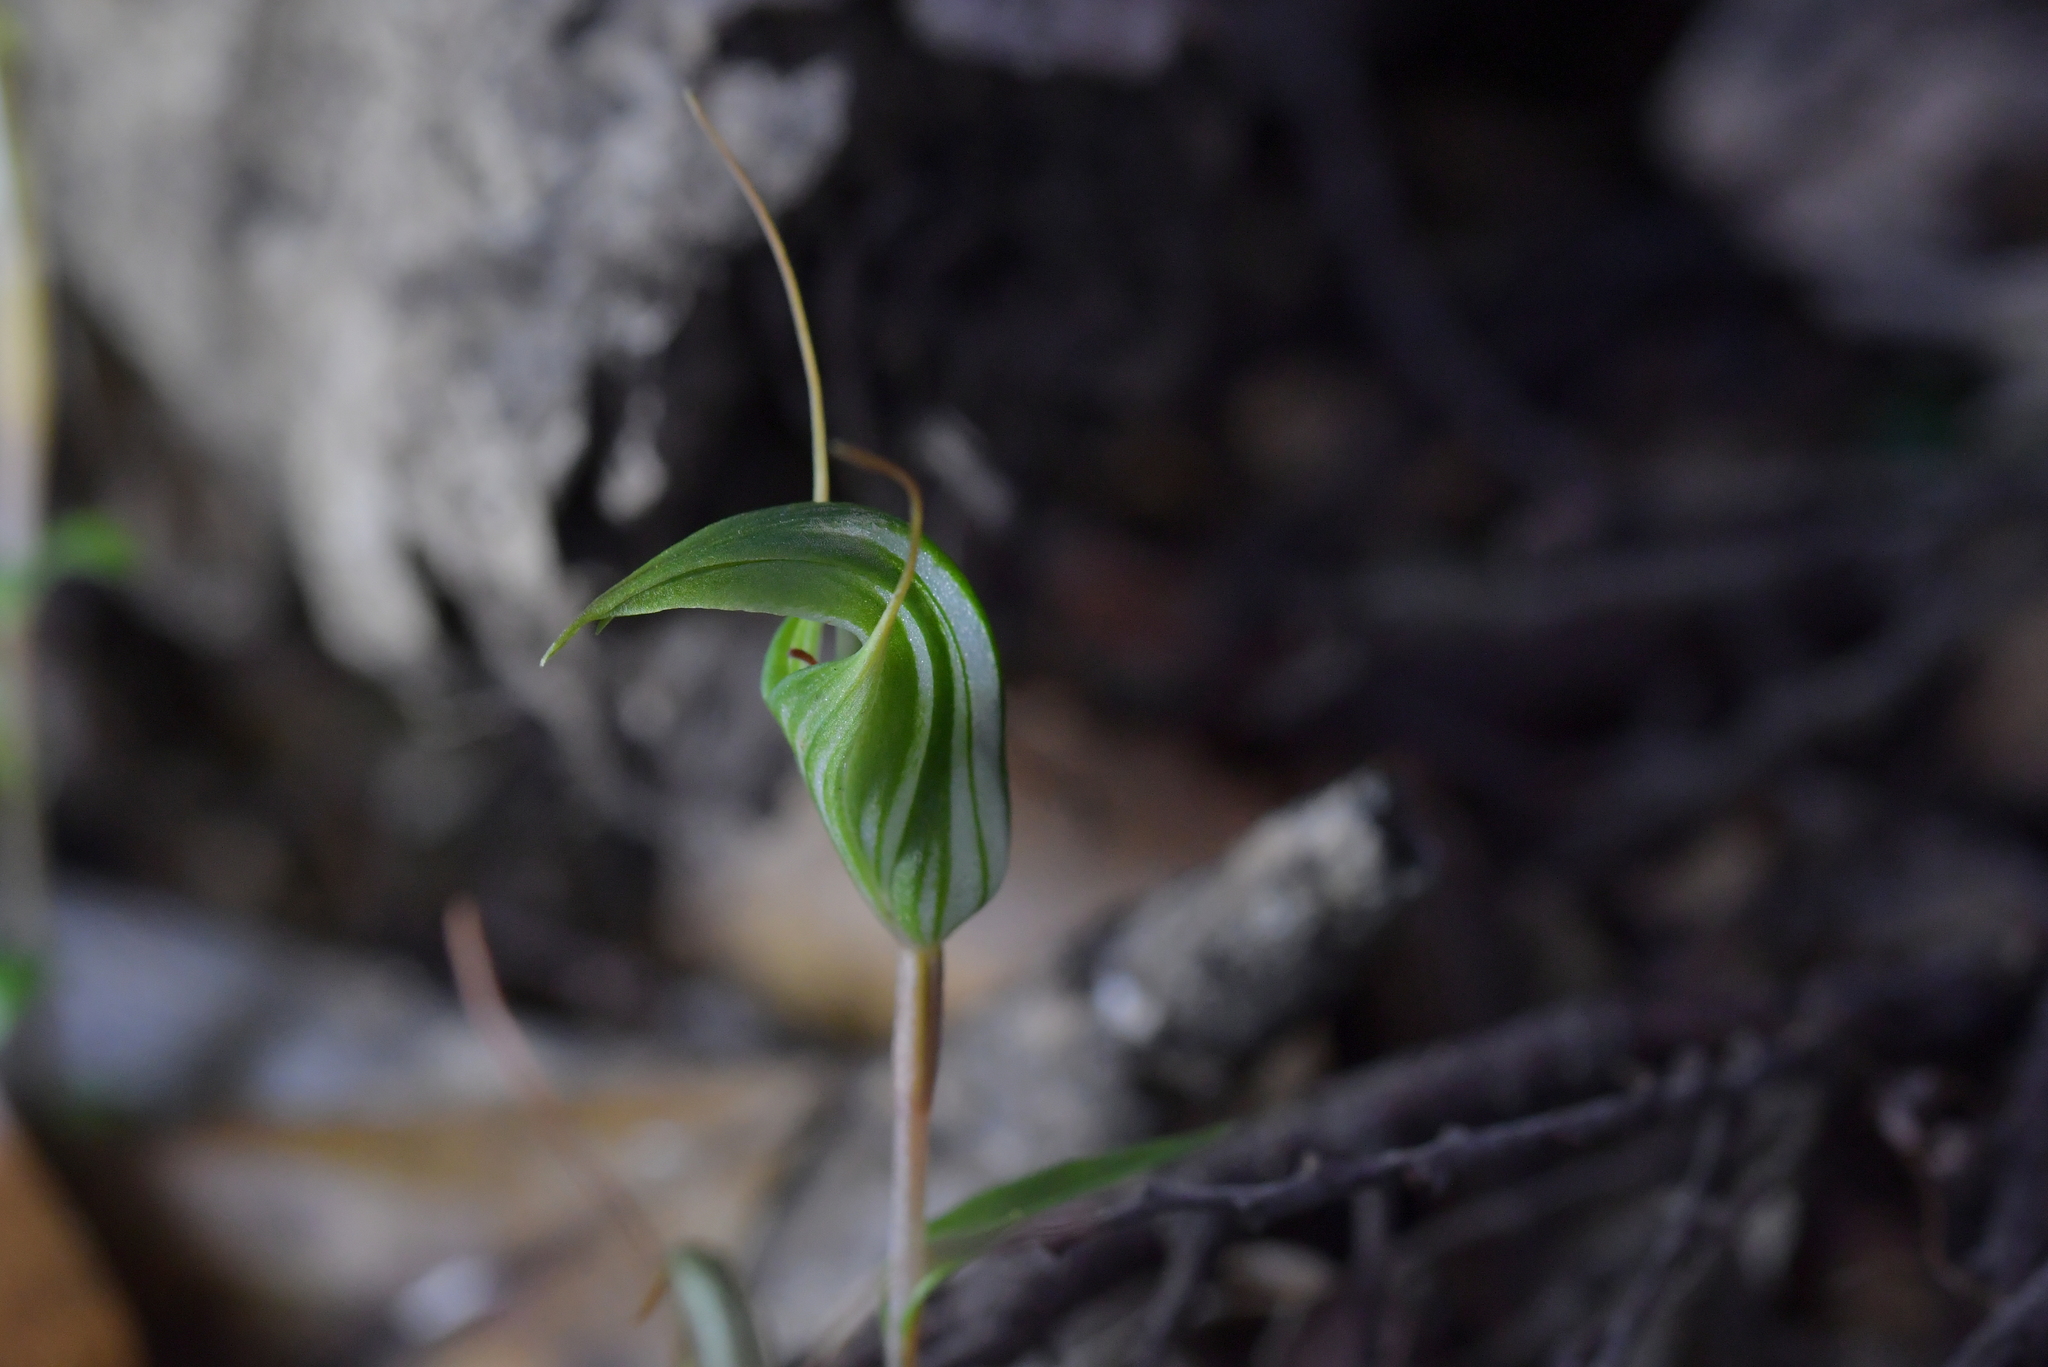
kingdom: Plantae
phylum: Tracheophyta
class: Liliopsida
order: Asparagales
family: Orchidaceae
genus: Pterostylis
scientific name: Pterostylis alobula
